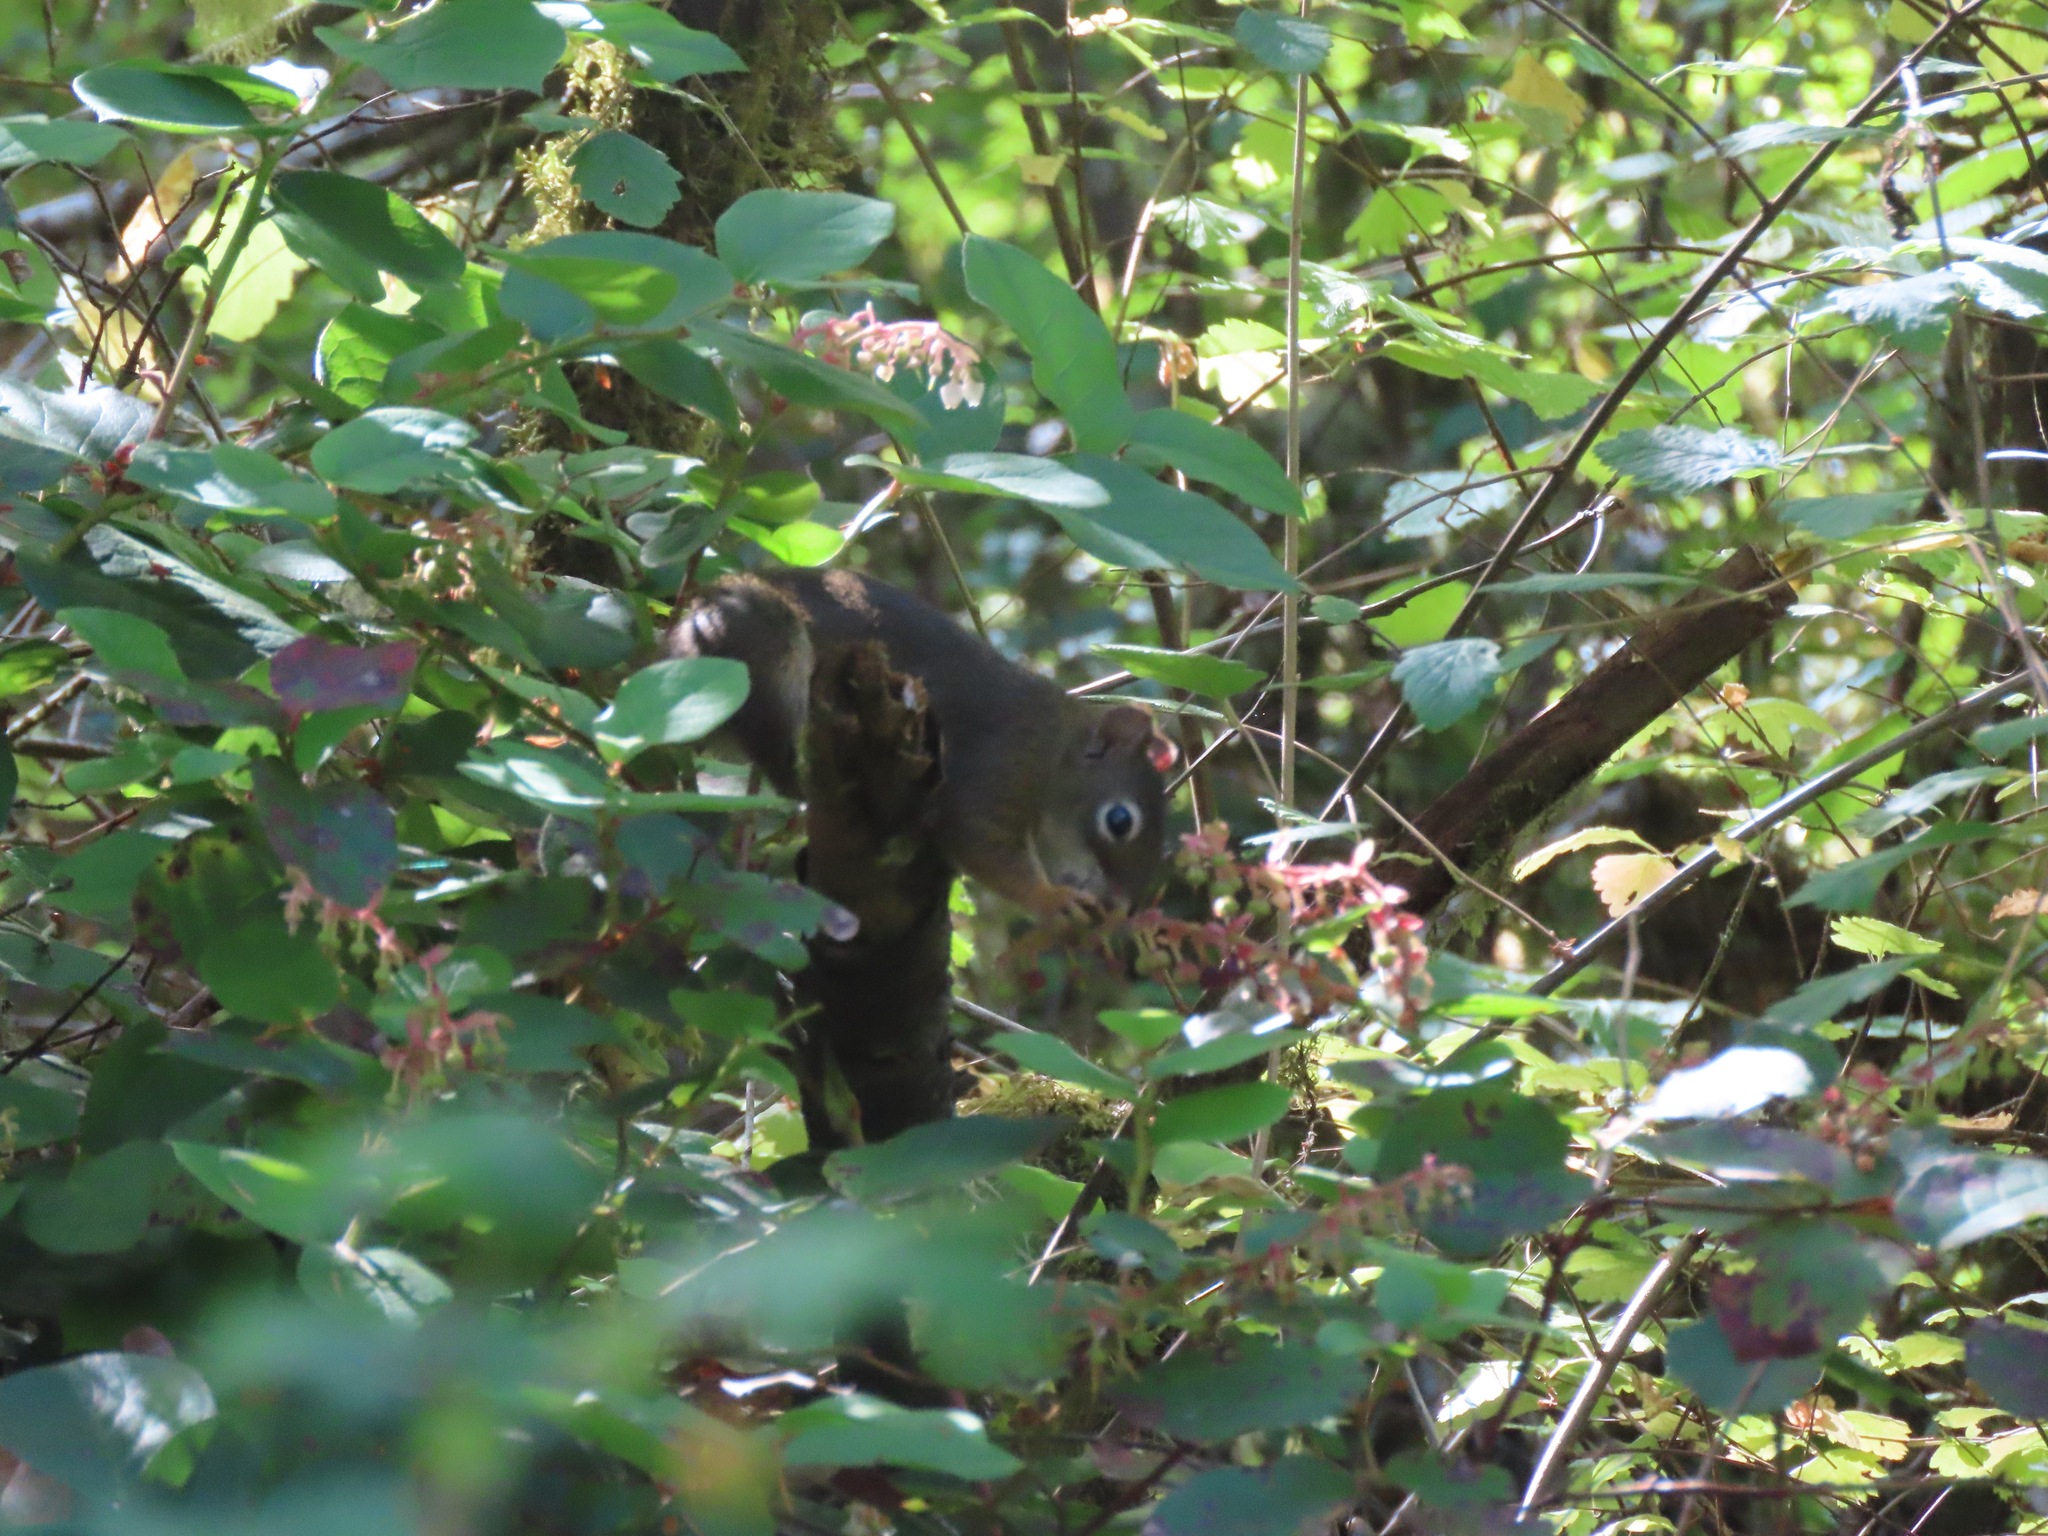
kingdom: Animalia
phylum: Chordata
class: Mammalia
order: Rodentia
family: Sciuridae
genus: Tamiasciurus
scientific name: Tamiasciurus hudsonicus
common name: Red squirrel
